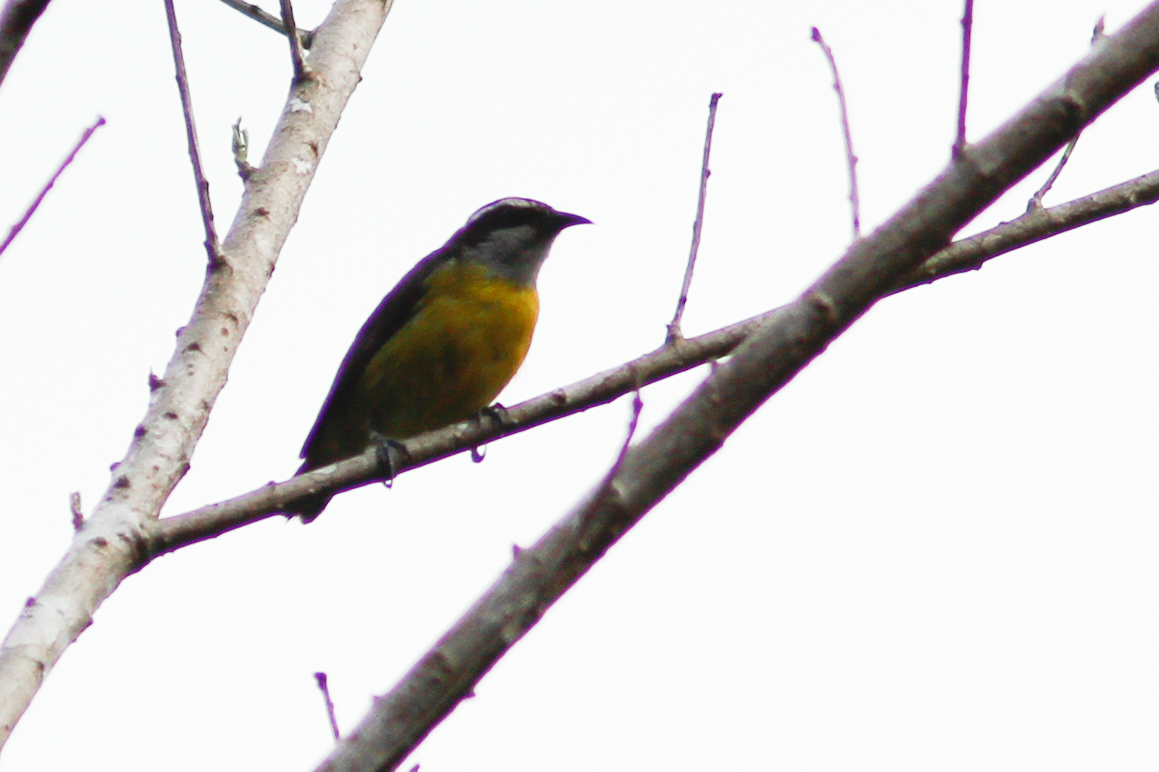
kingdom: Animalia
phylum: Chordata
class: Aves
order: Passeriformes
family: Thraupidae
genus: Coereba
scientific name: Coereba flaveola
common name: Bananaquit
